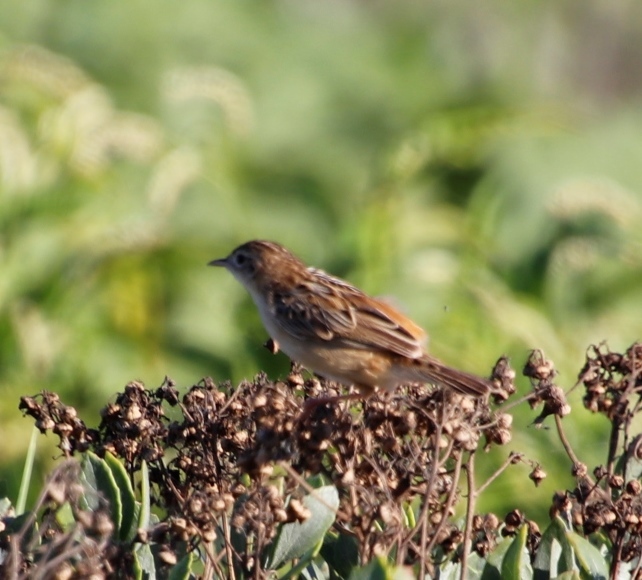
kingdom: Animalia
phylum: Chordata
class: Aves
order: Passeriformes
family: Cisticolidae
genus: Cisticola
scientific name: Cisticola juncidis
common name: Zitting cisticola
